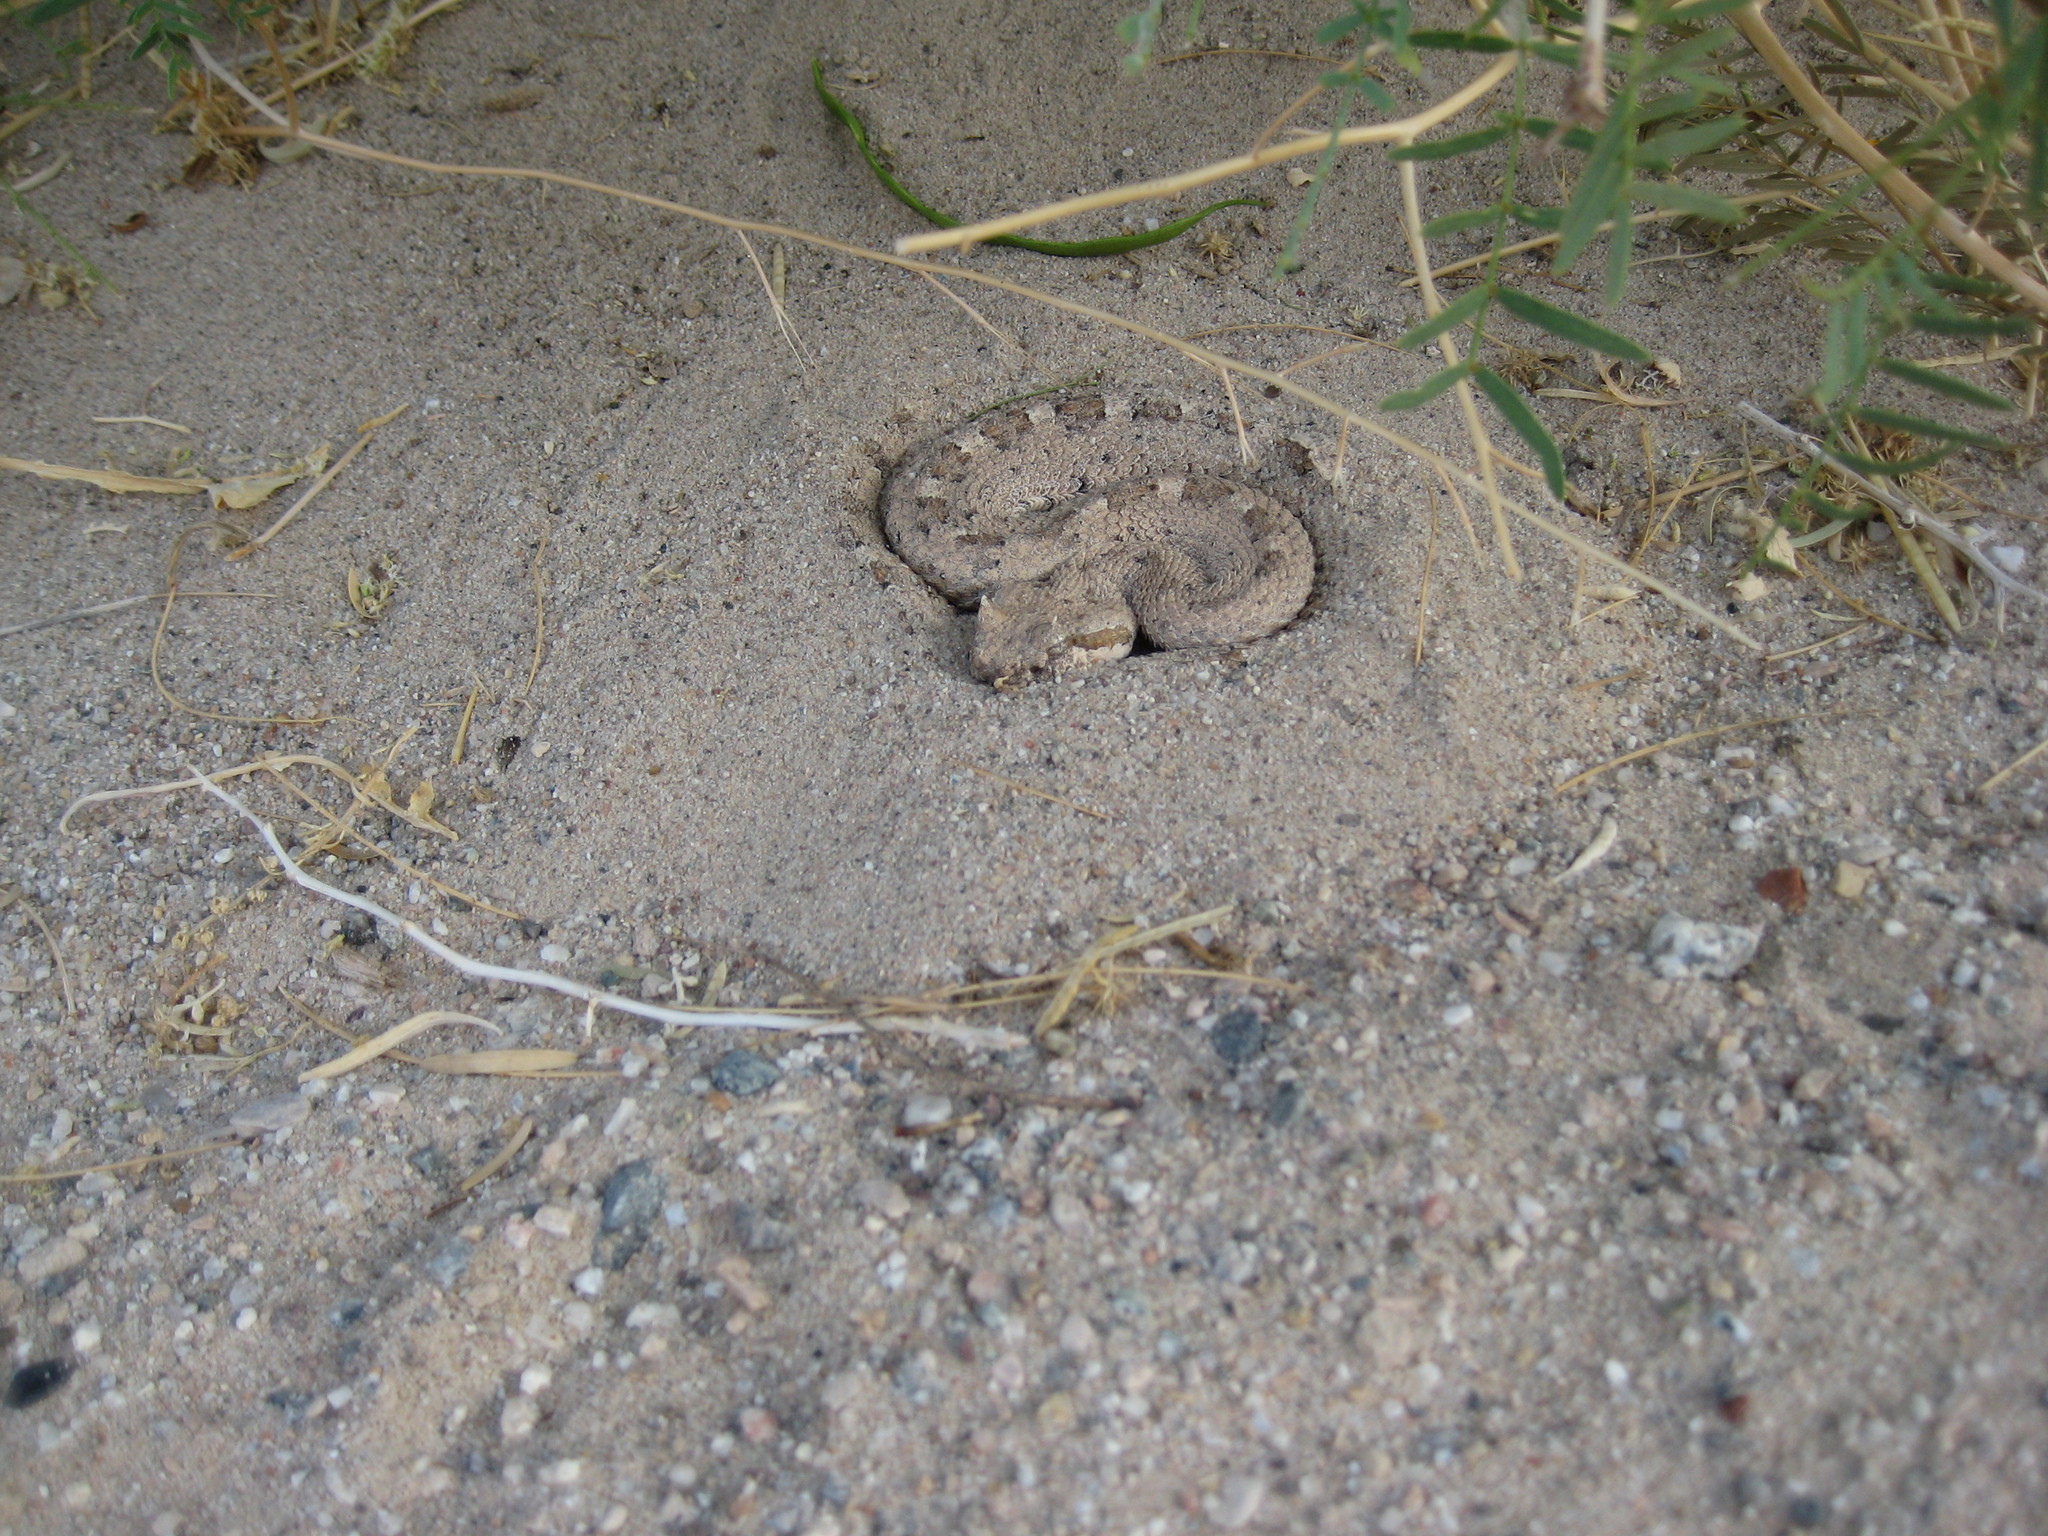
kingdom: Animalia
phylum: Chordata
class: Squamata
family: Viperidae
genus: Crotalus
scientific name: Crotalus cerastes
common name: Sidewinder
